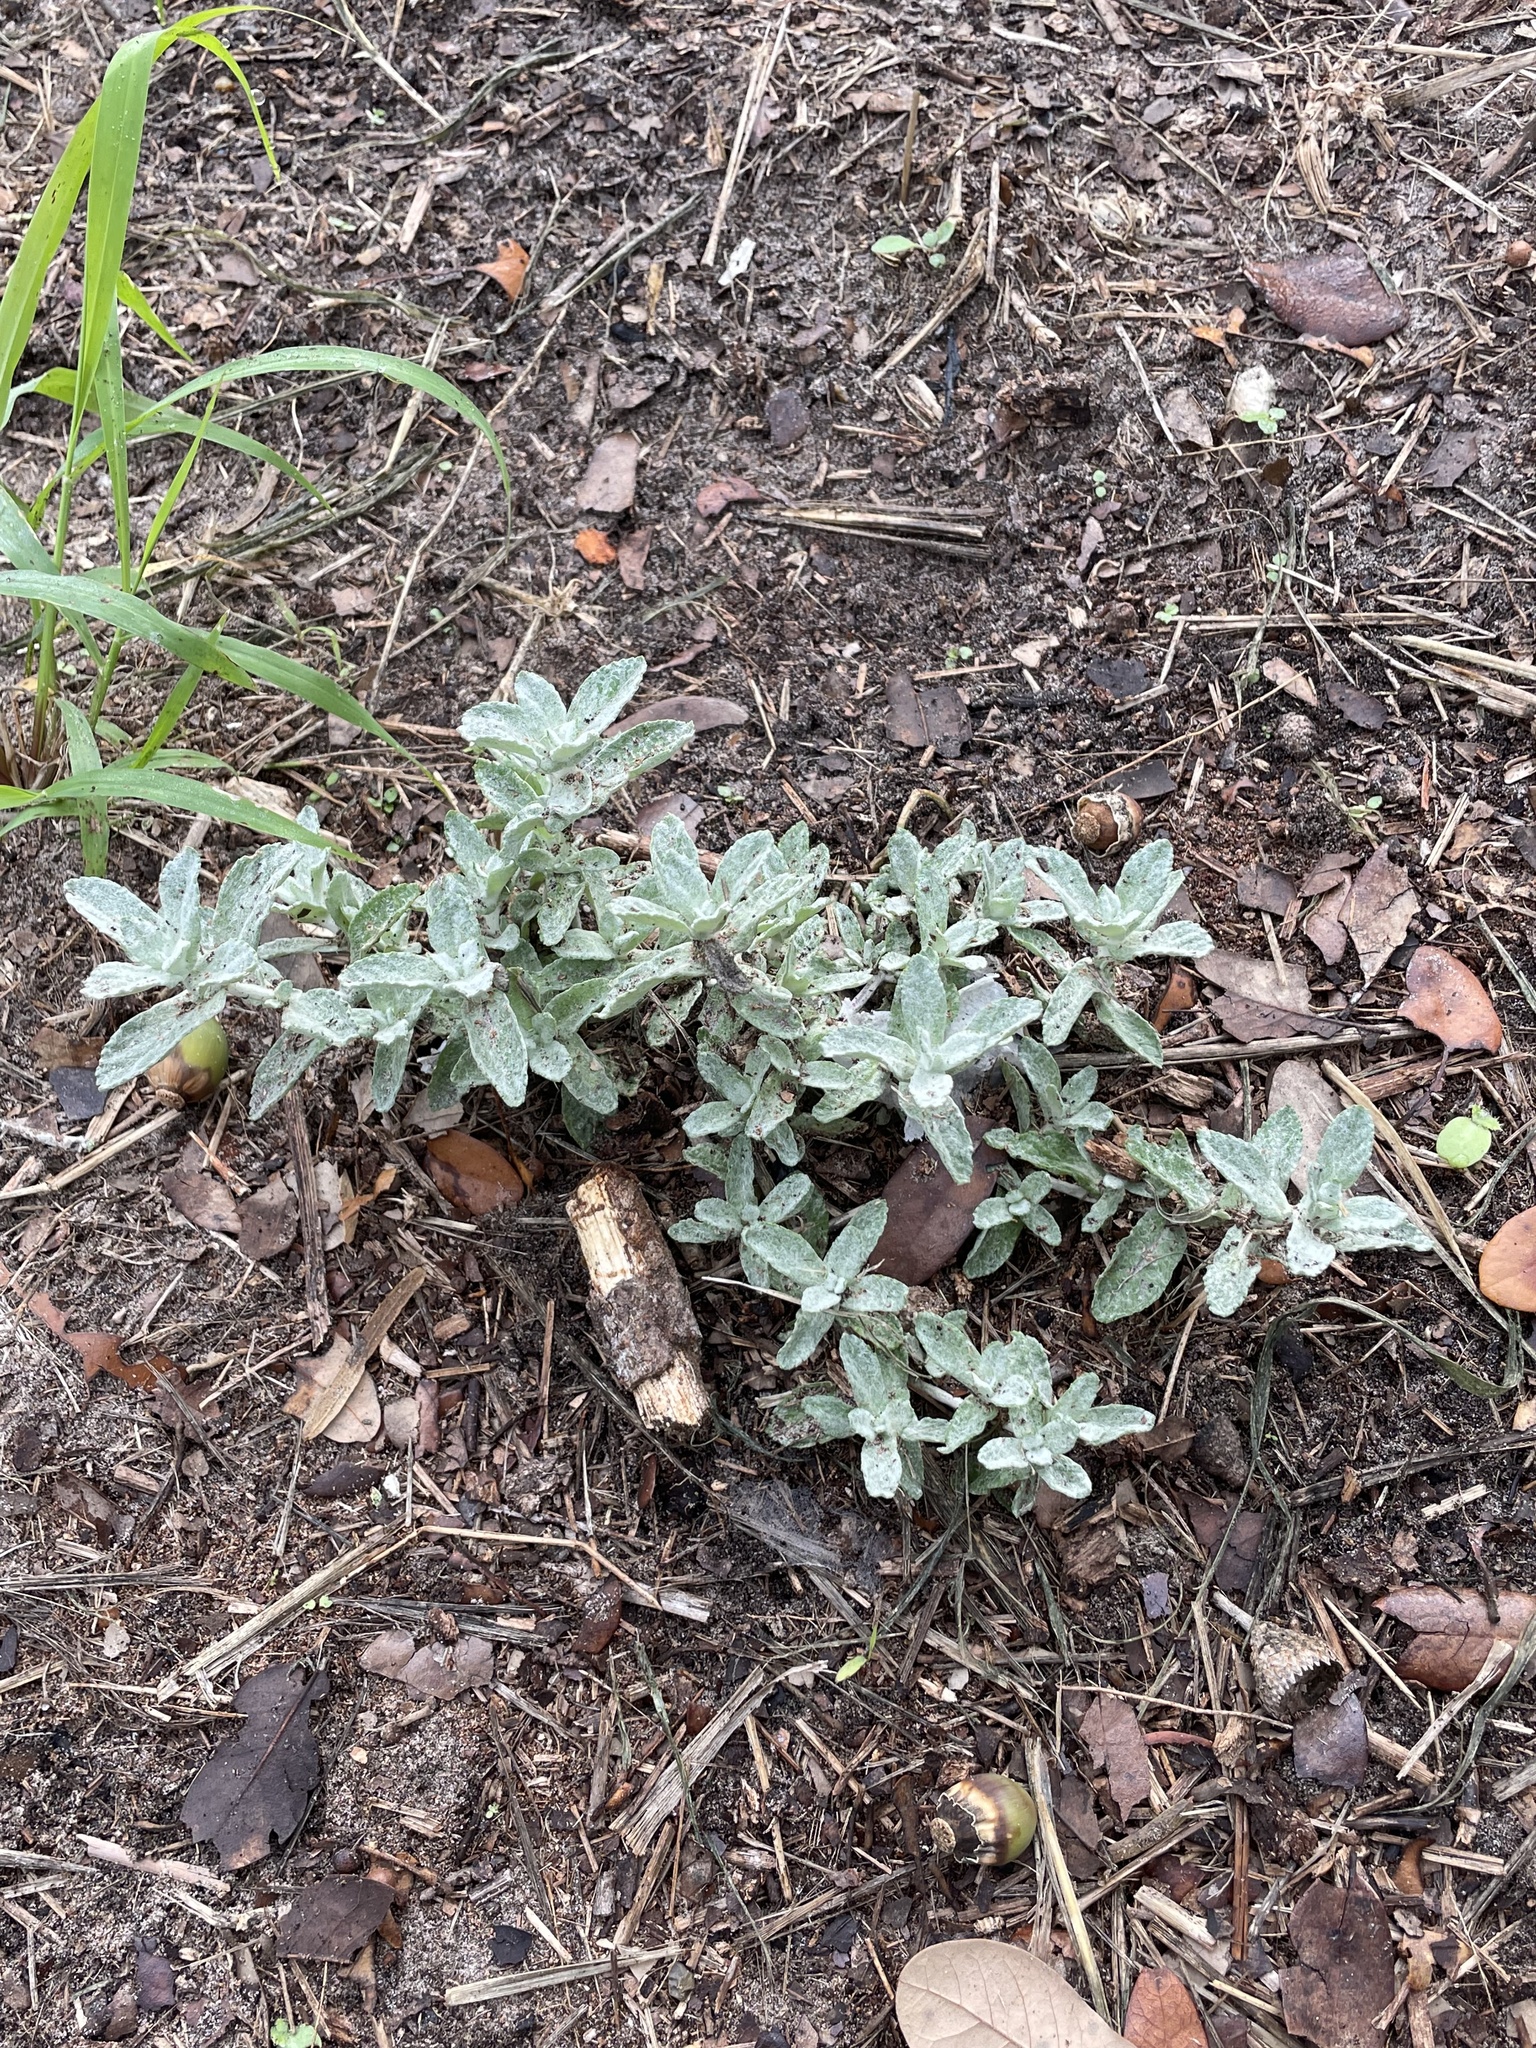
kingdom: Plantae
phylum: Tracheophyta
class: Magnoliopsida
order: Lamiales
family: Plantaginaceae
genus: Stemodia
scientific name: Stemodia lanata
